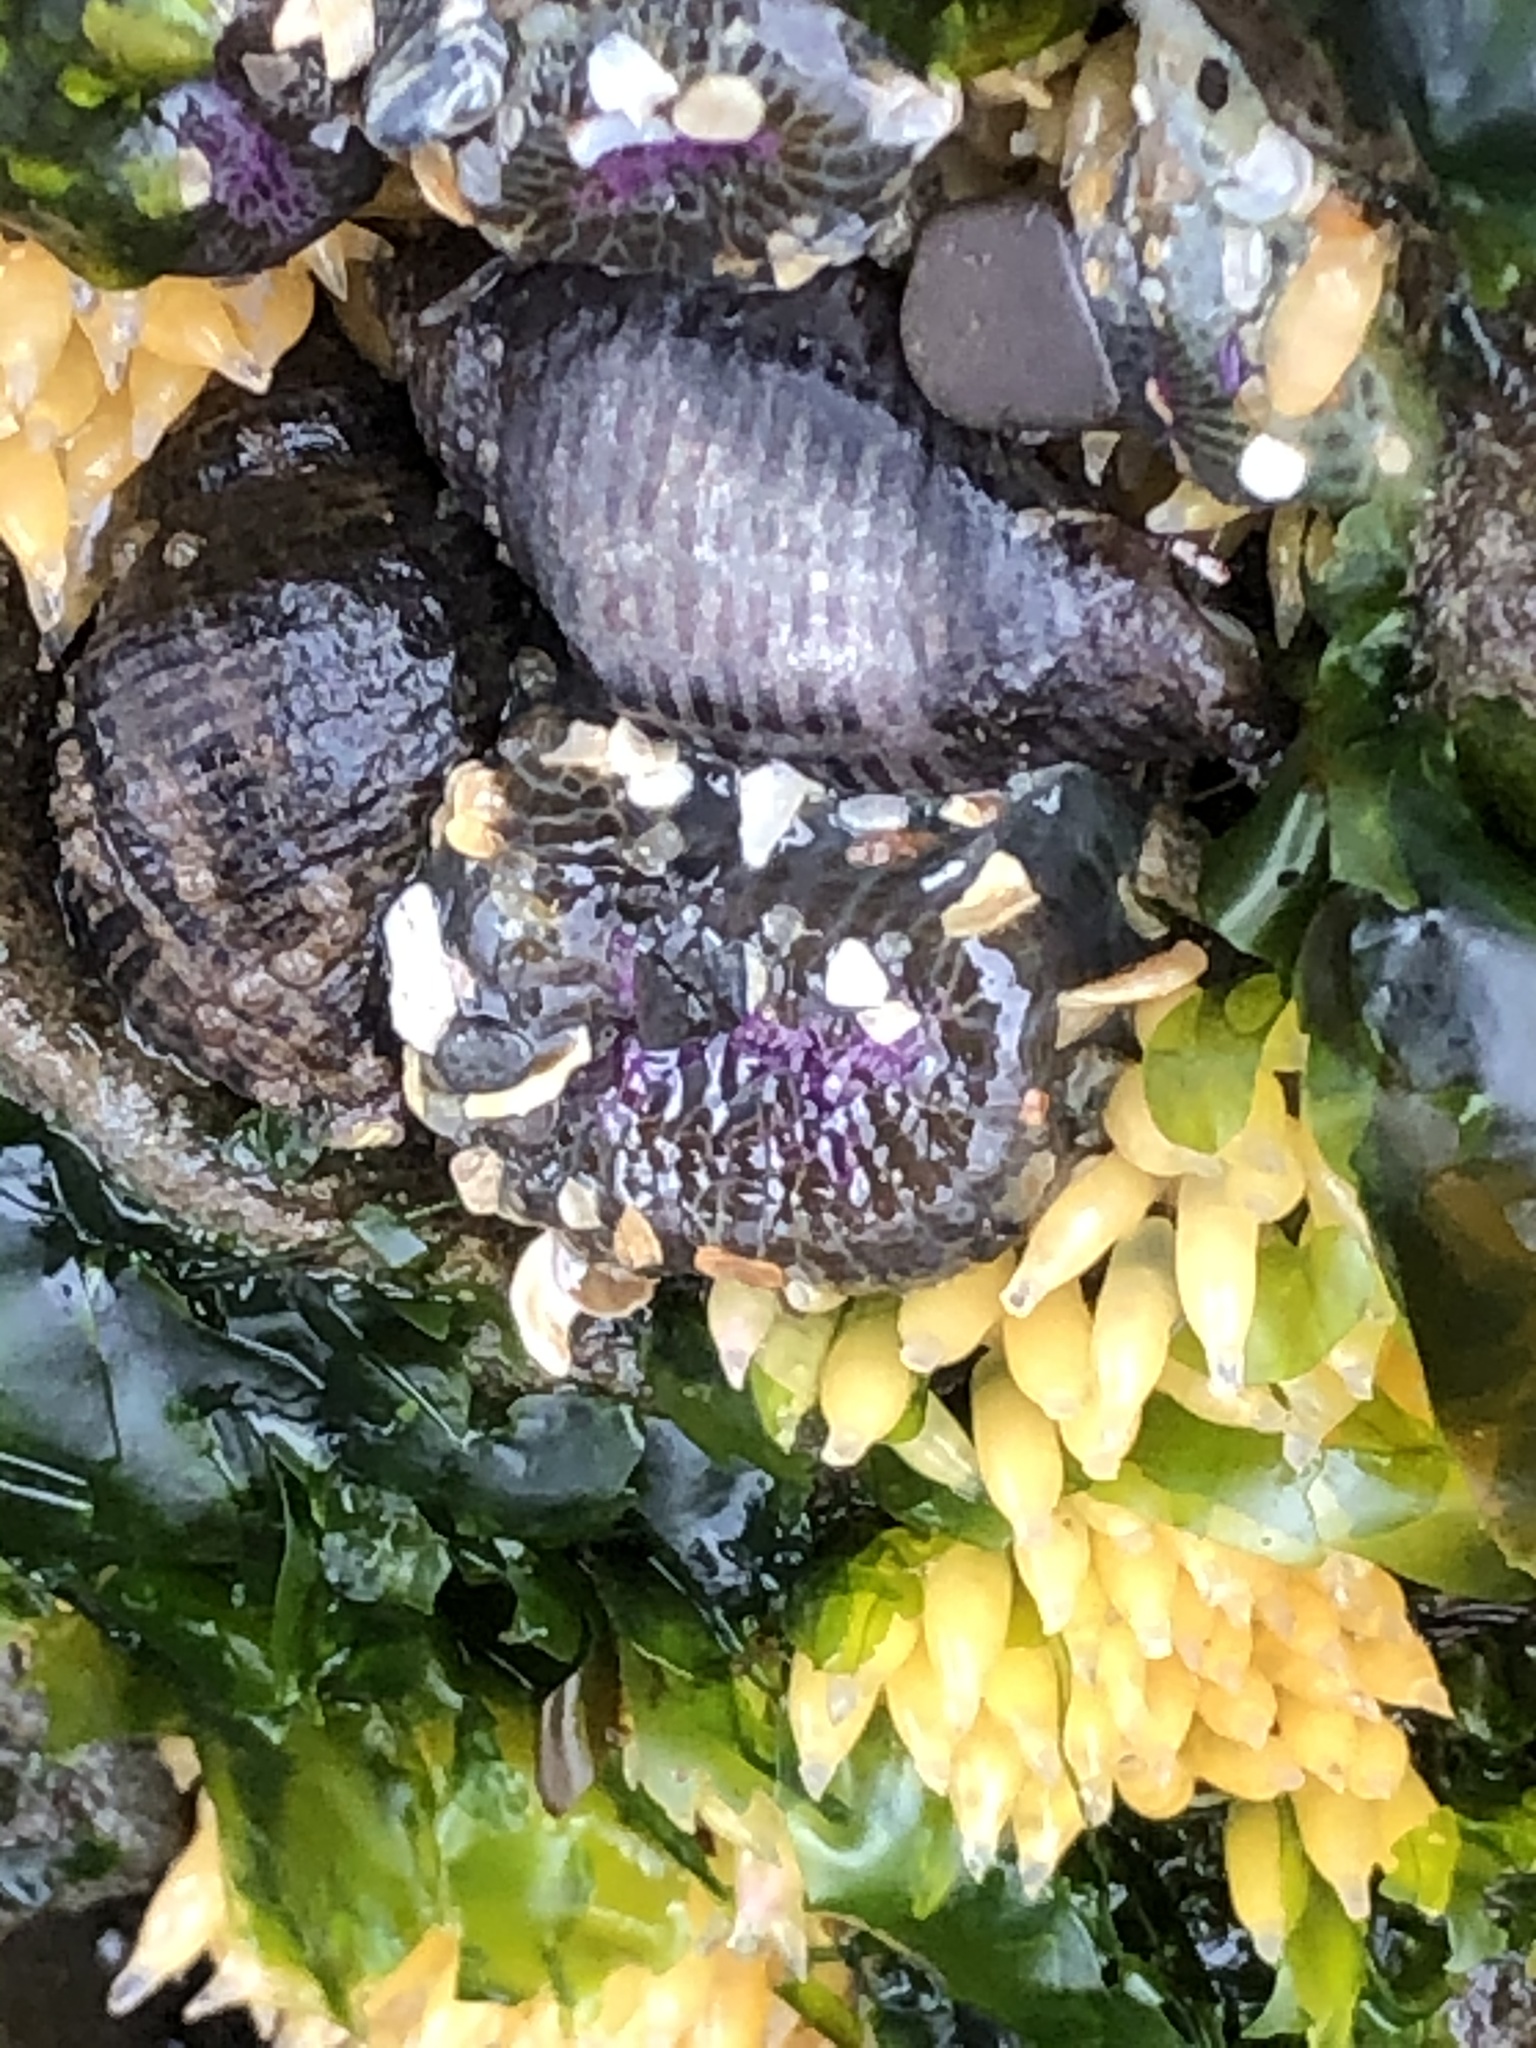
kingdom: Animalia
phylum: Cnidaria
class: Anthozoa
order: Actiniaria
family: Actiniidae
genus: Anthopleura
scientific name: Anthopleura elegantissima
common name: Clonal anemone
